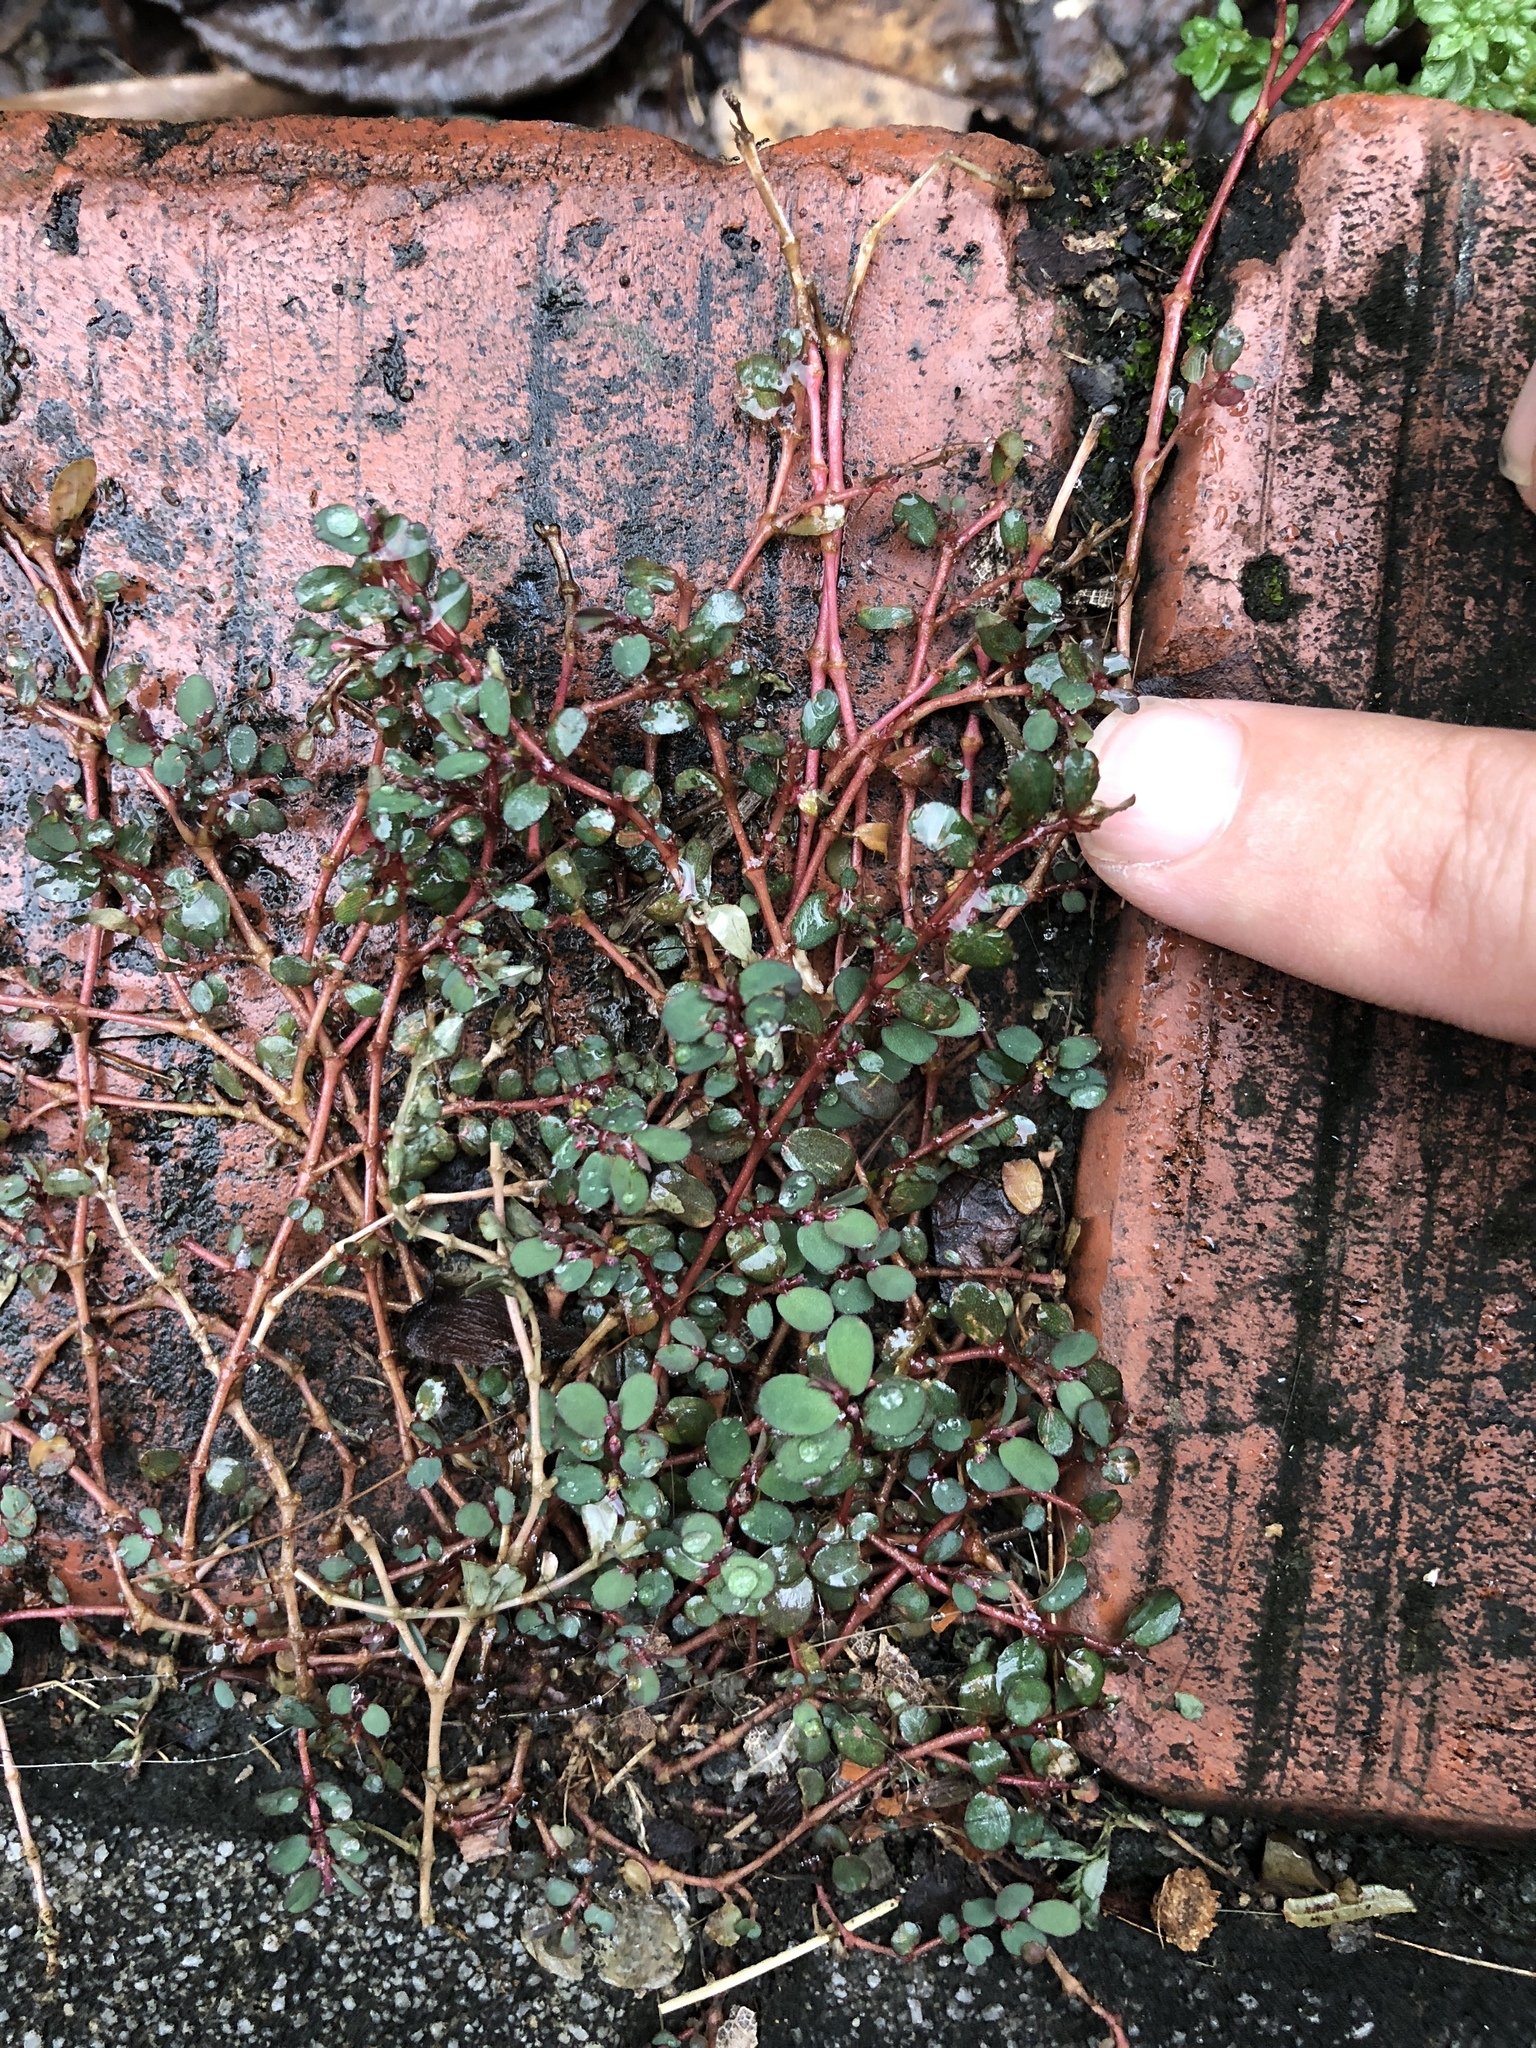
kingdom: Plantae
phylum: Tracheophyta
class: Magnoliopsida
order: Malpighiales
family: Euphorbiaceae
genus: Euphorbia
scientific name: Euphorbia prostrata
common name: Prostrate sandmat
